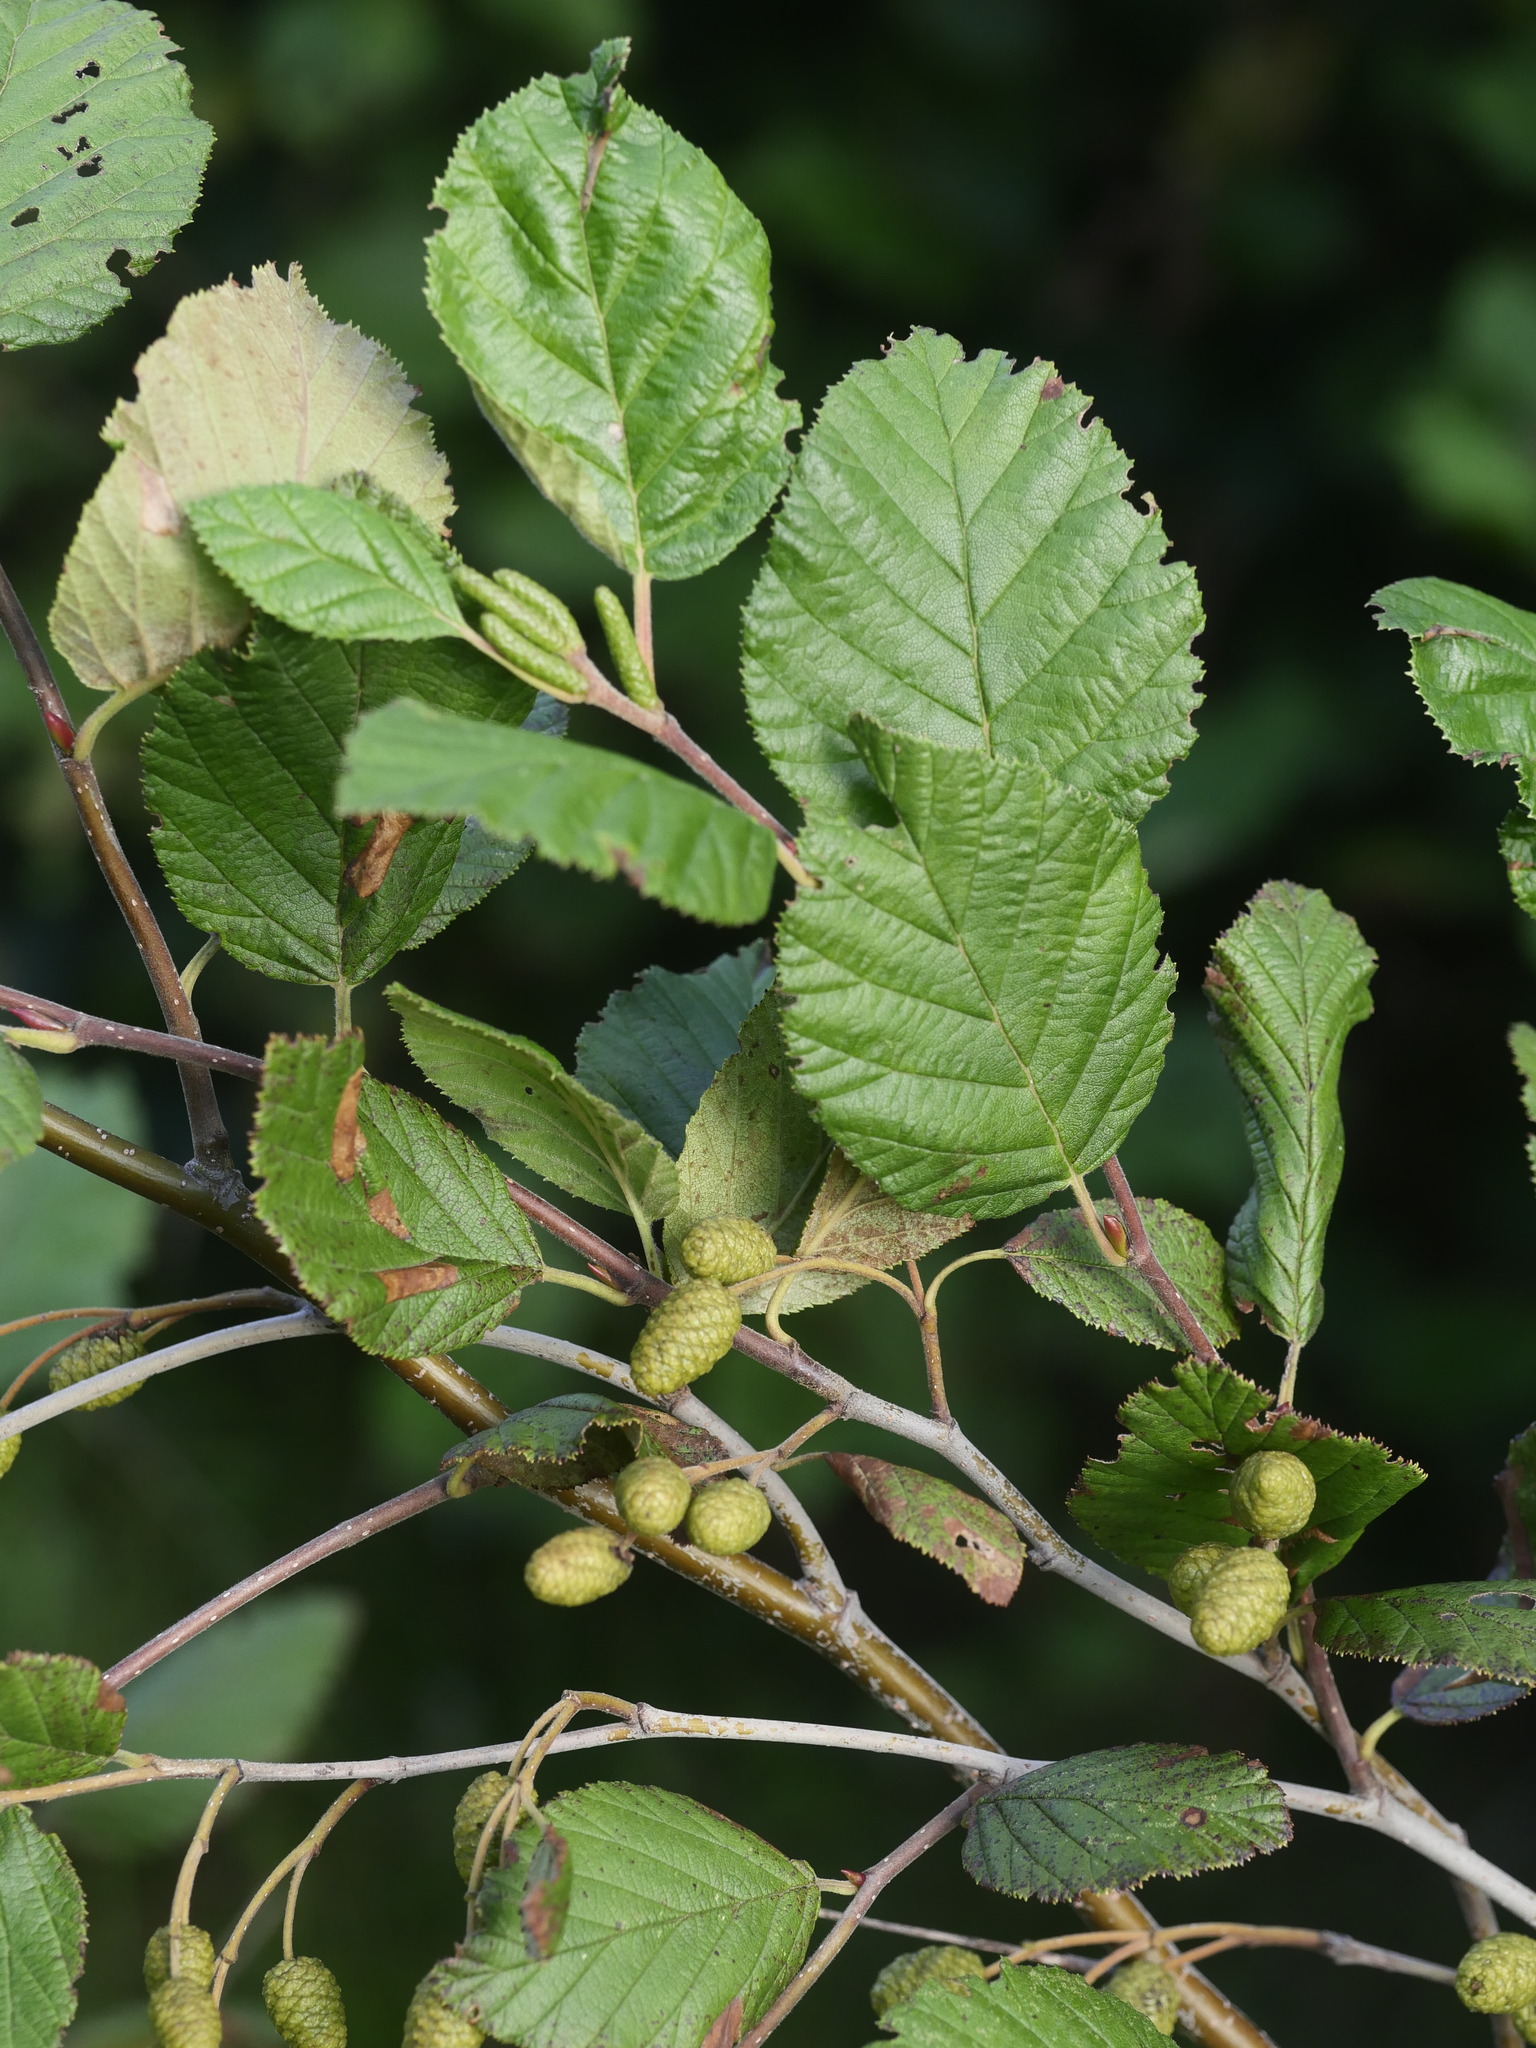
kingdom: Plantae
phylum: Tracheophyta
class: Magnoliopsida
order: Fagales
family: Betulaceae
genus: Alnus
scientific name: Alnus alnobetula
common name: Green alder
